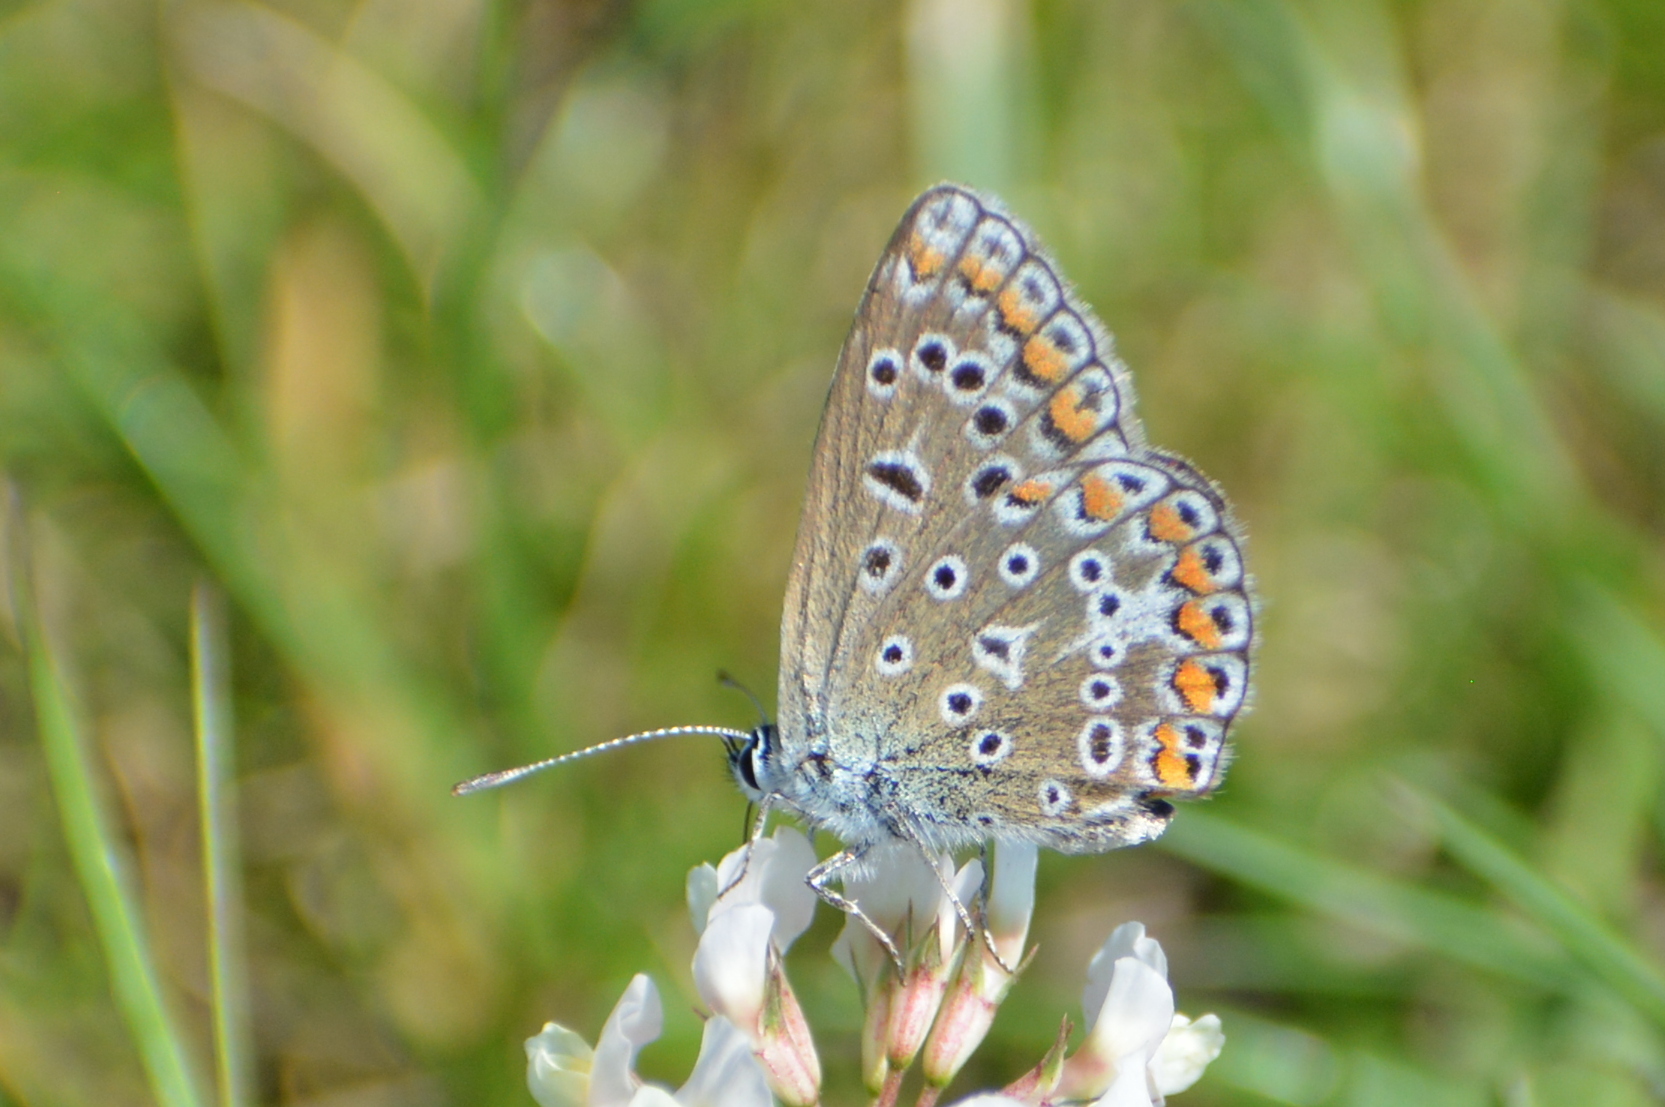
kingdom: Animalia
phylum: Arthropoda
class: Insecta
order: Lepidoptera
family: Lycaenidae
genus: Polyommatus
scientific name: Polyommatus icarus
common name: Common blue
